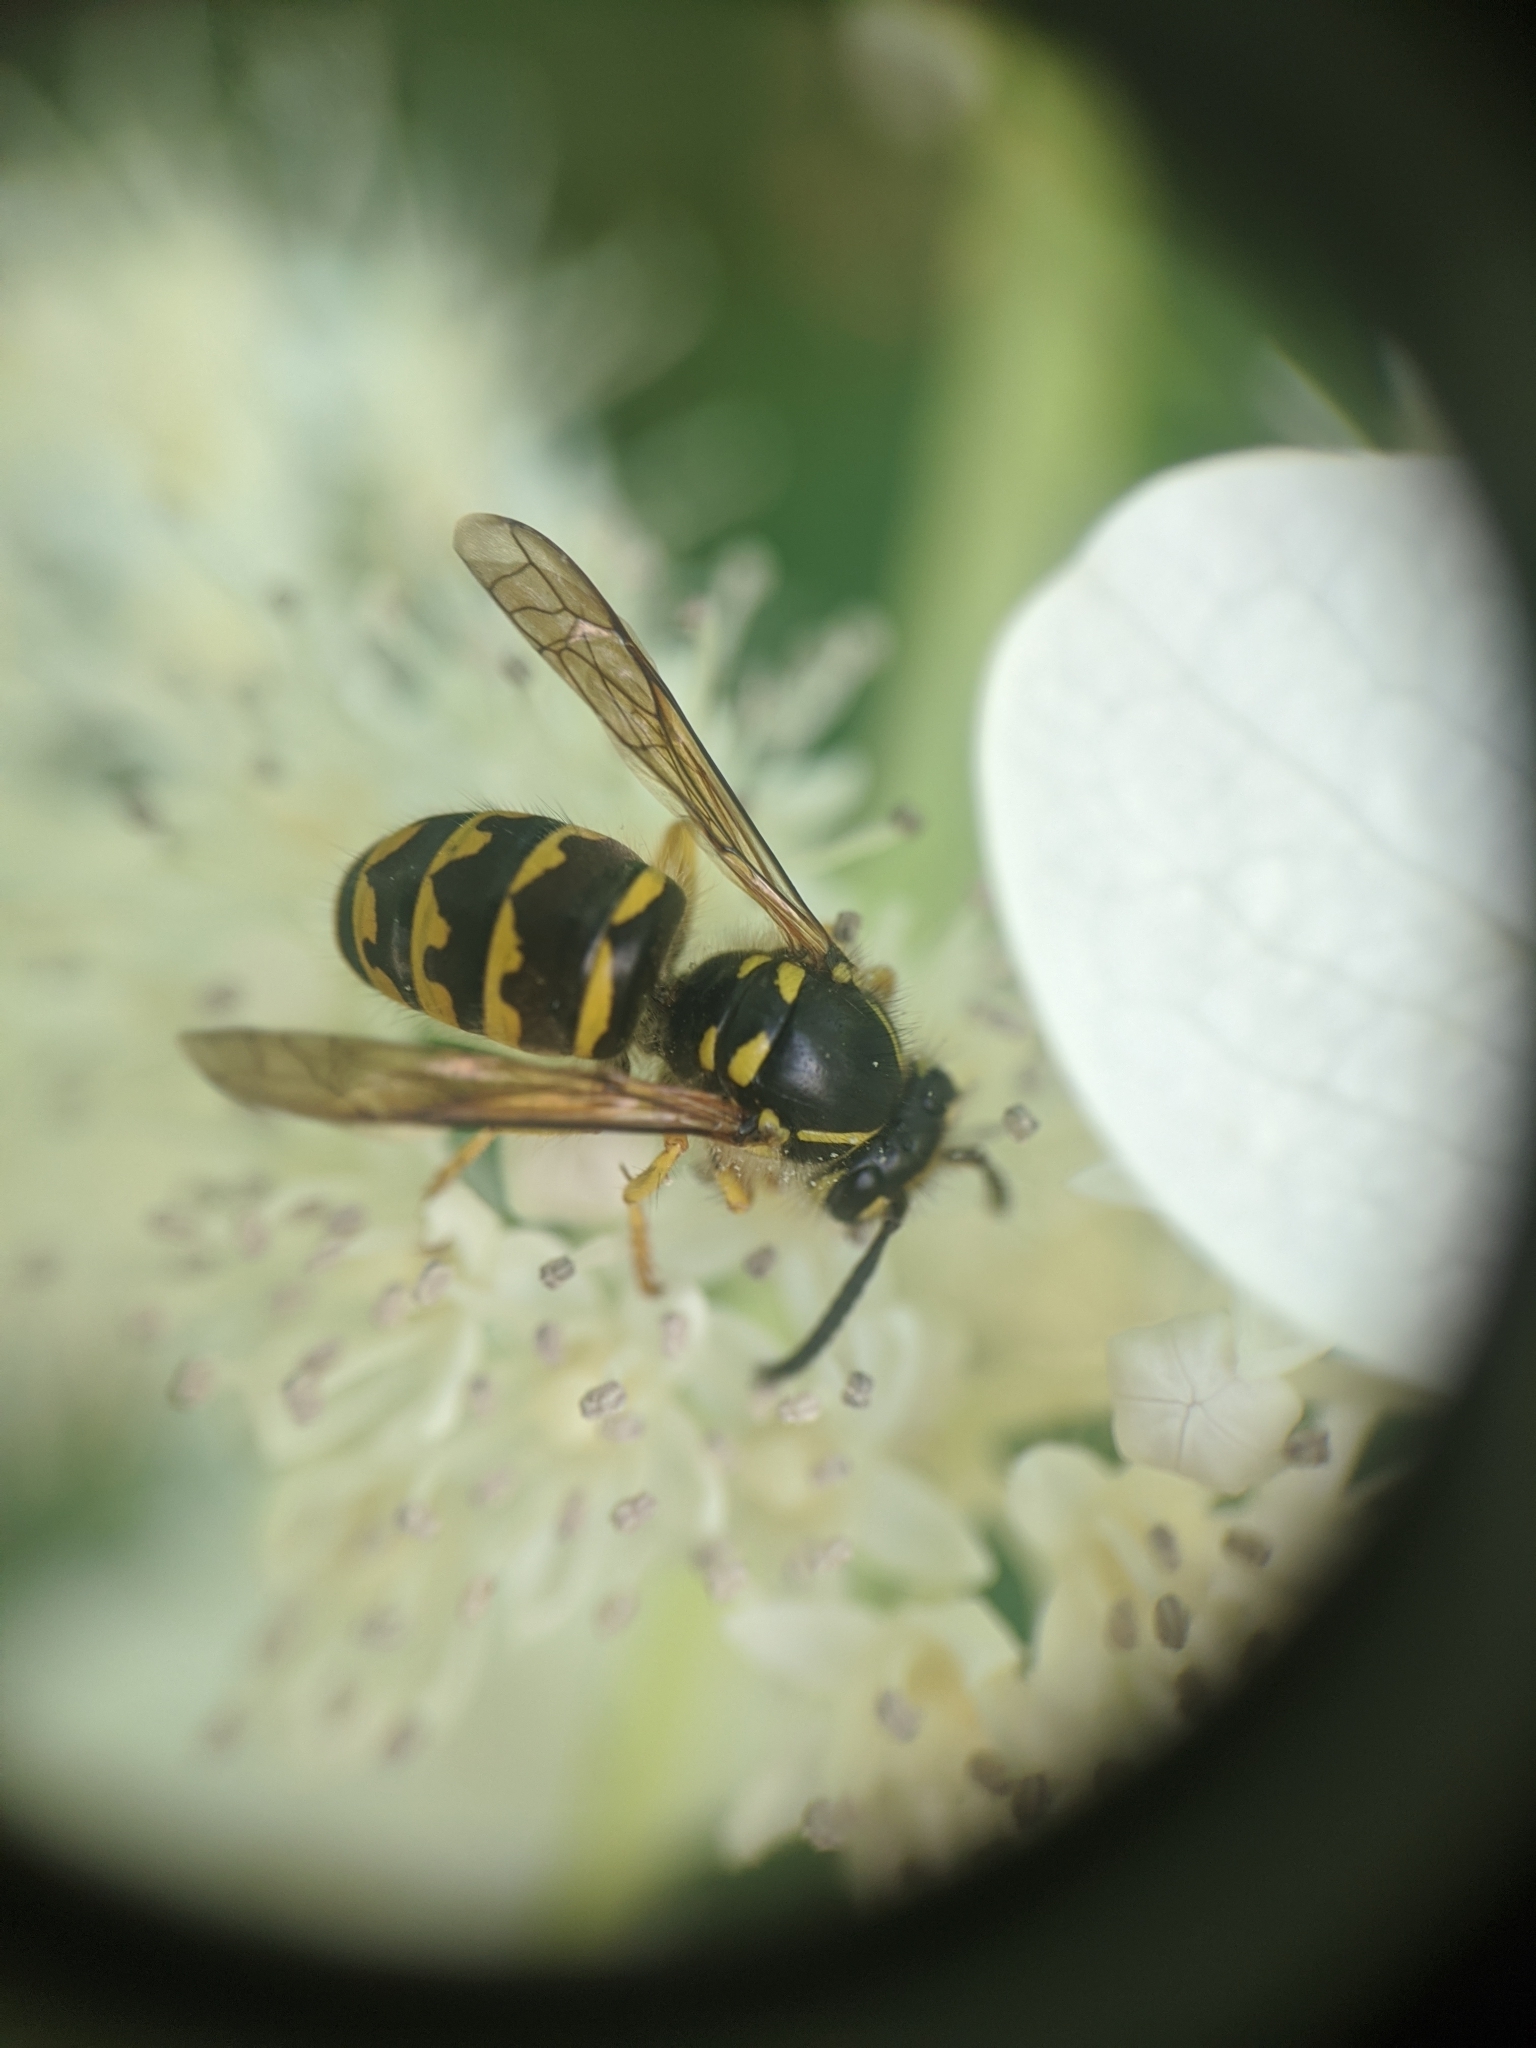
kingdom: Animalia
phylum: Arthropoda
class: Insecta
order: Hymenoptera
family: Vespidae
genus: Dolichovespula
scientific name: Dolichovespula arenaria
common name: Aerial yellowjacket
